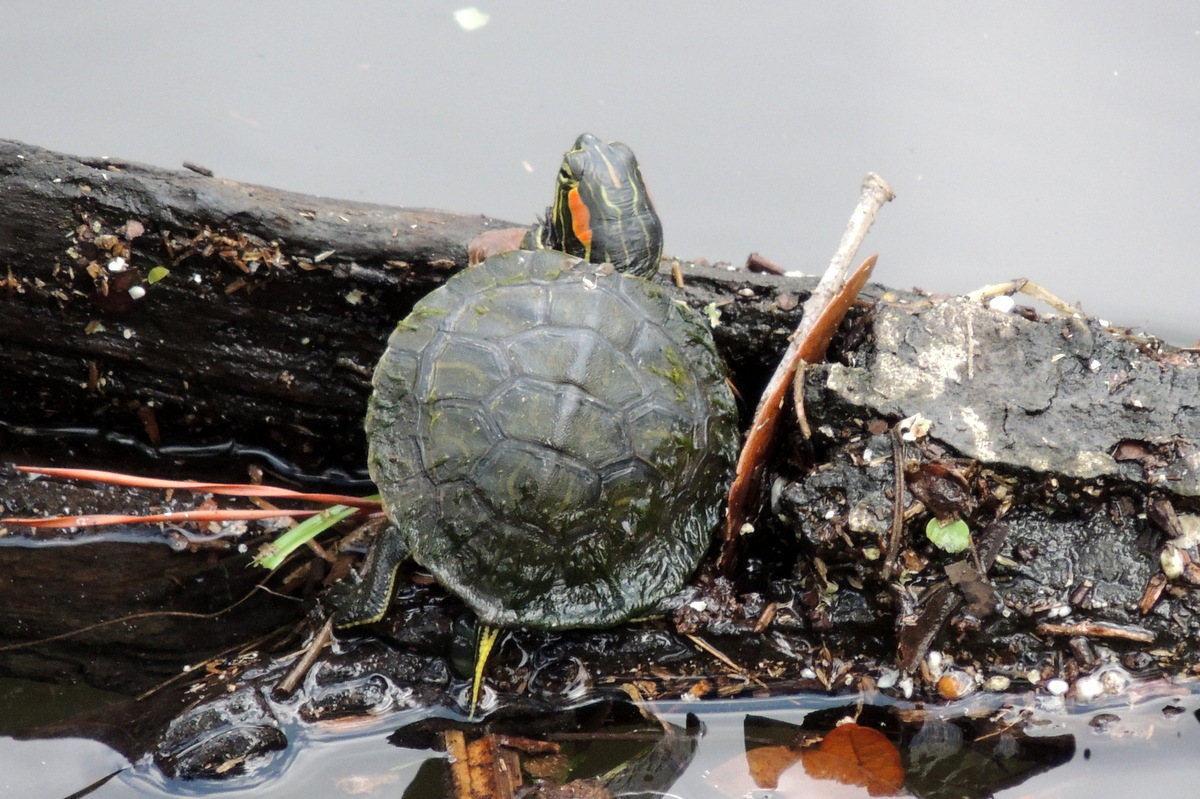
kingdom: Animalia
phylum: Chordata
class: Testudines
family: Emydidae
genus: Trachemys
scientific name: Trachemys scripta
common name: Slider
